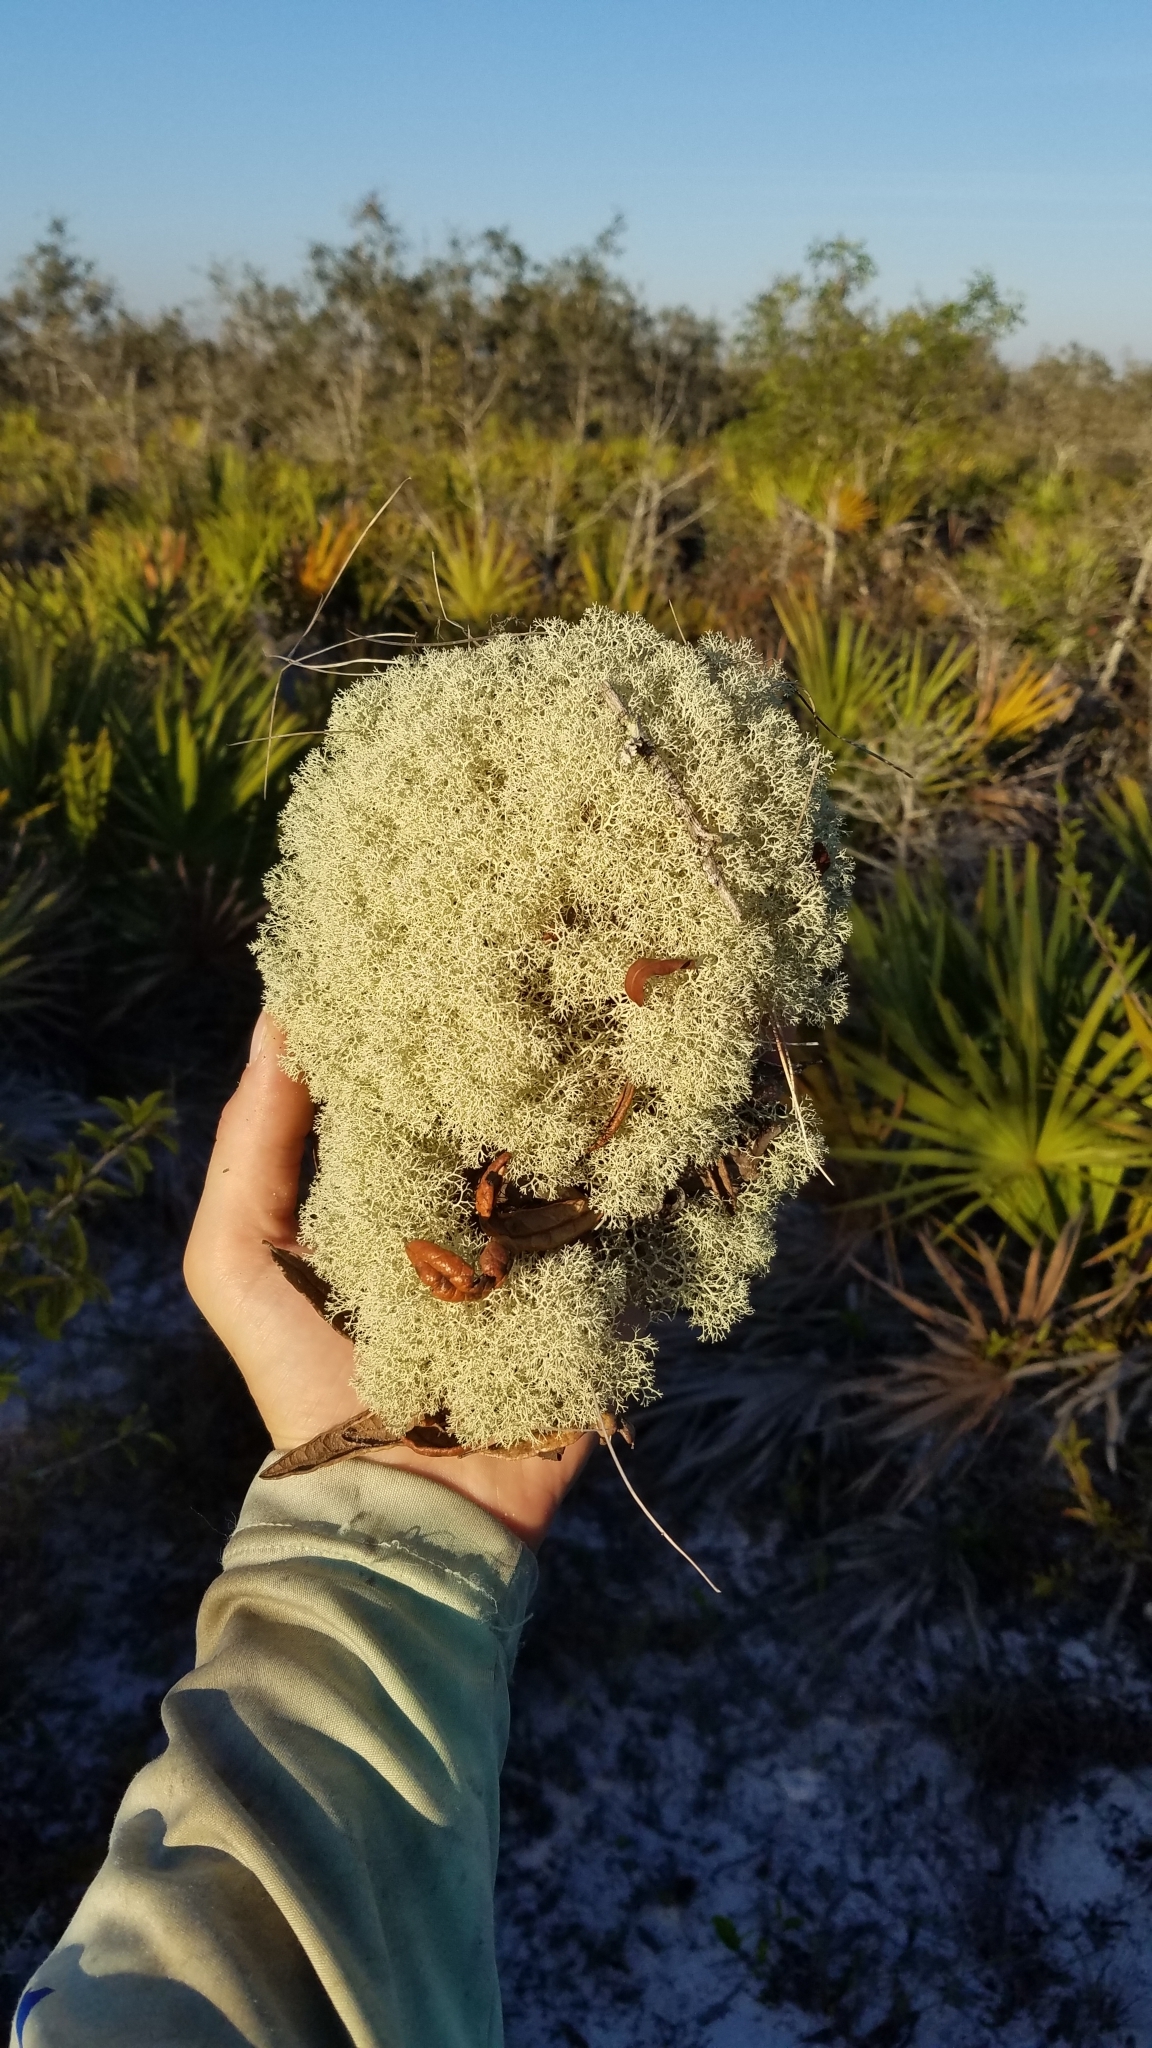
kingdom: Fungi
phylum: Ascomycota
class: Lecanoromycetes
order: Lecanorales
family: Cladoniaceae
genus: Cladonia
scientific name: Cladonia subtenuis
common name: Dixie reindeer lichen
